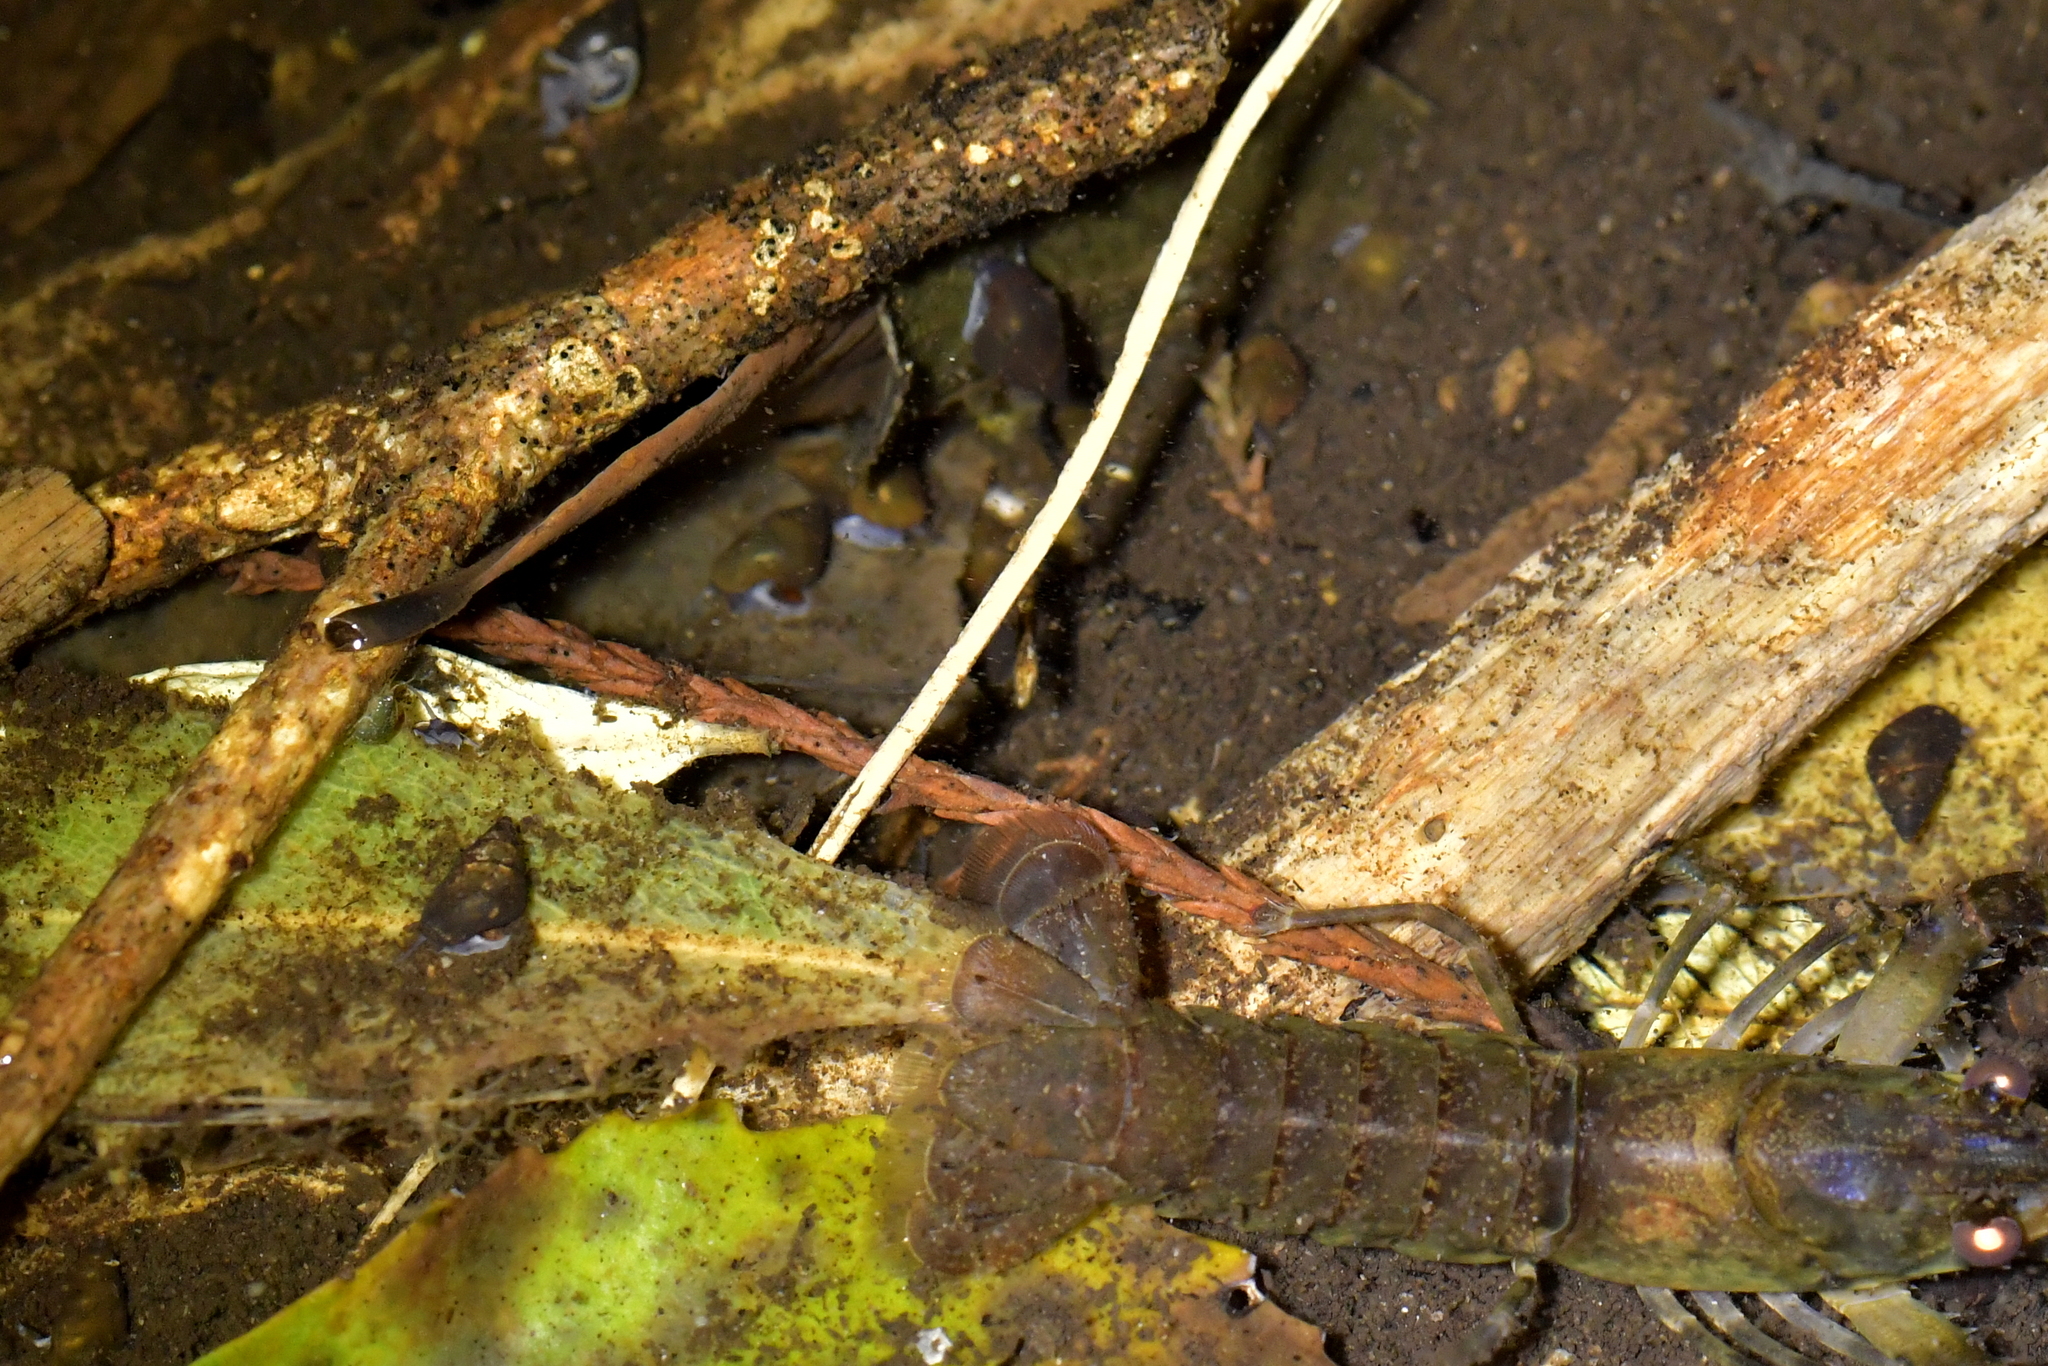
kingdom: Animalia
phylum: Mollusca
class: Gastropoda
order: Littorinimorpha
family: Tateidae
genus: Potamopyrgus
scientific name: Potamopyrgus antipodarum
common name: Jenkins' spire snail
